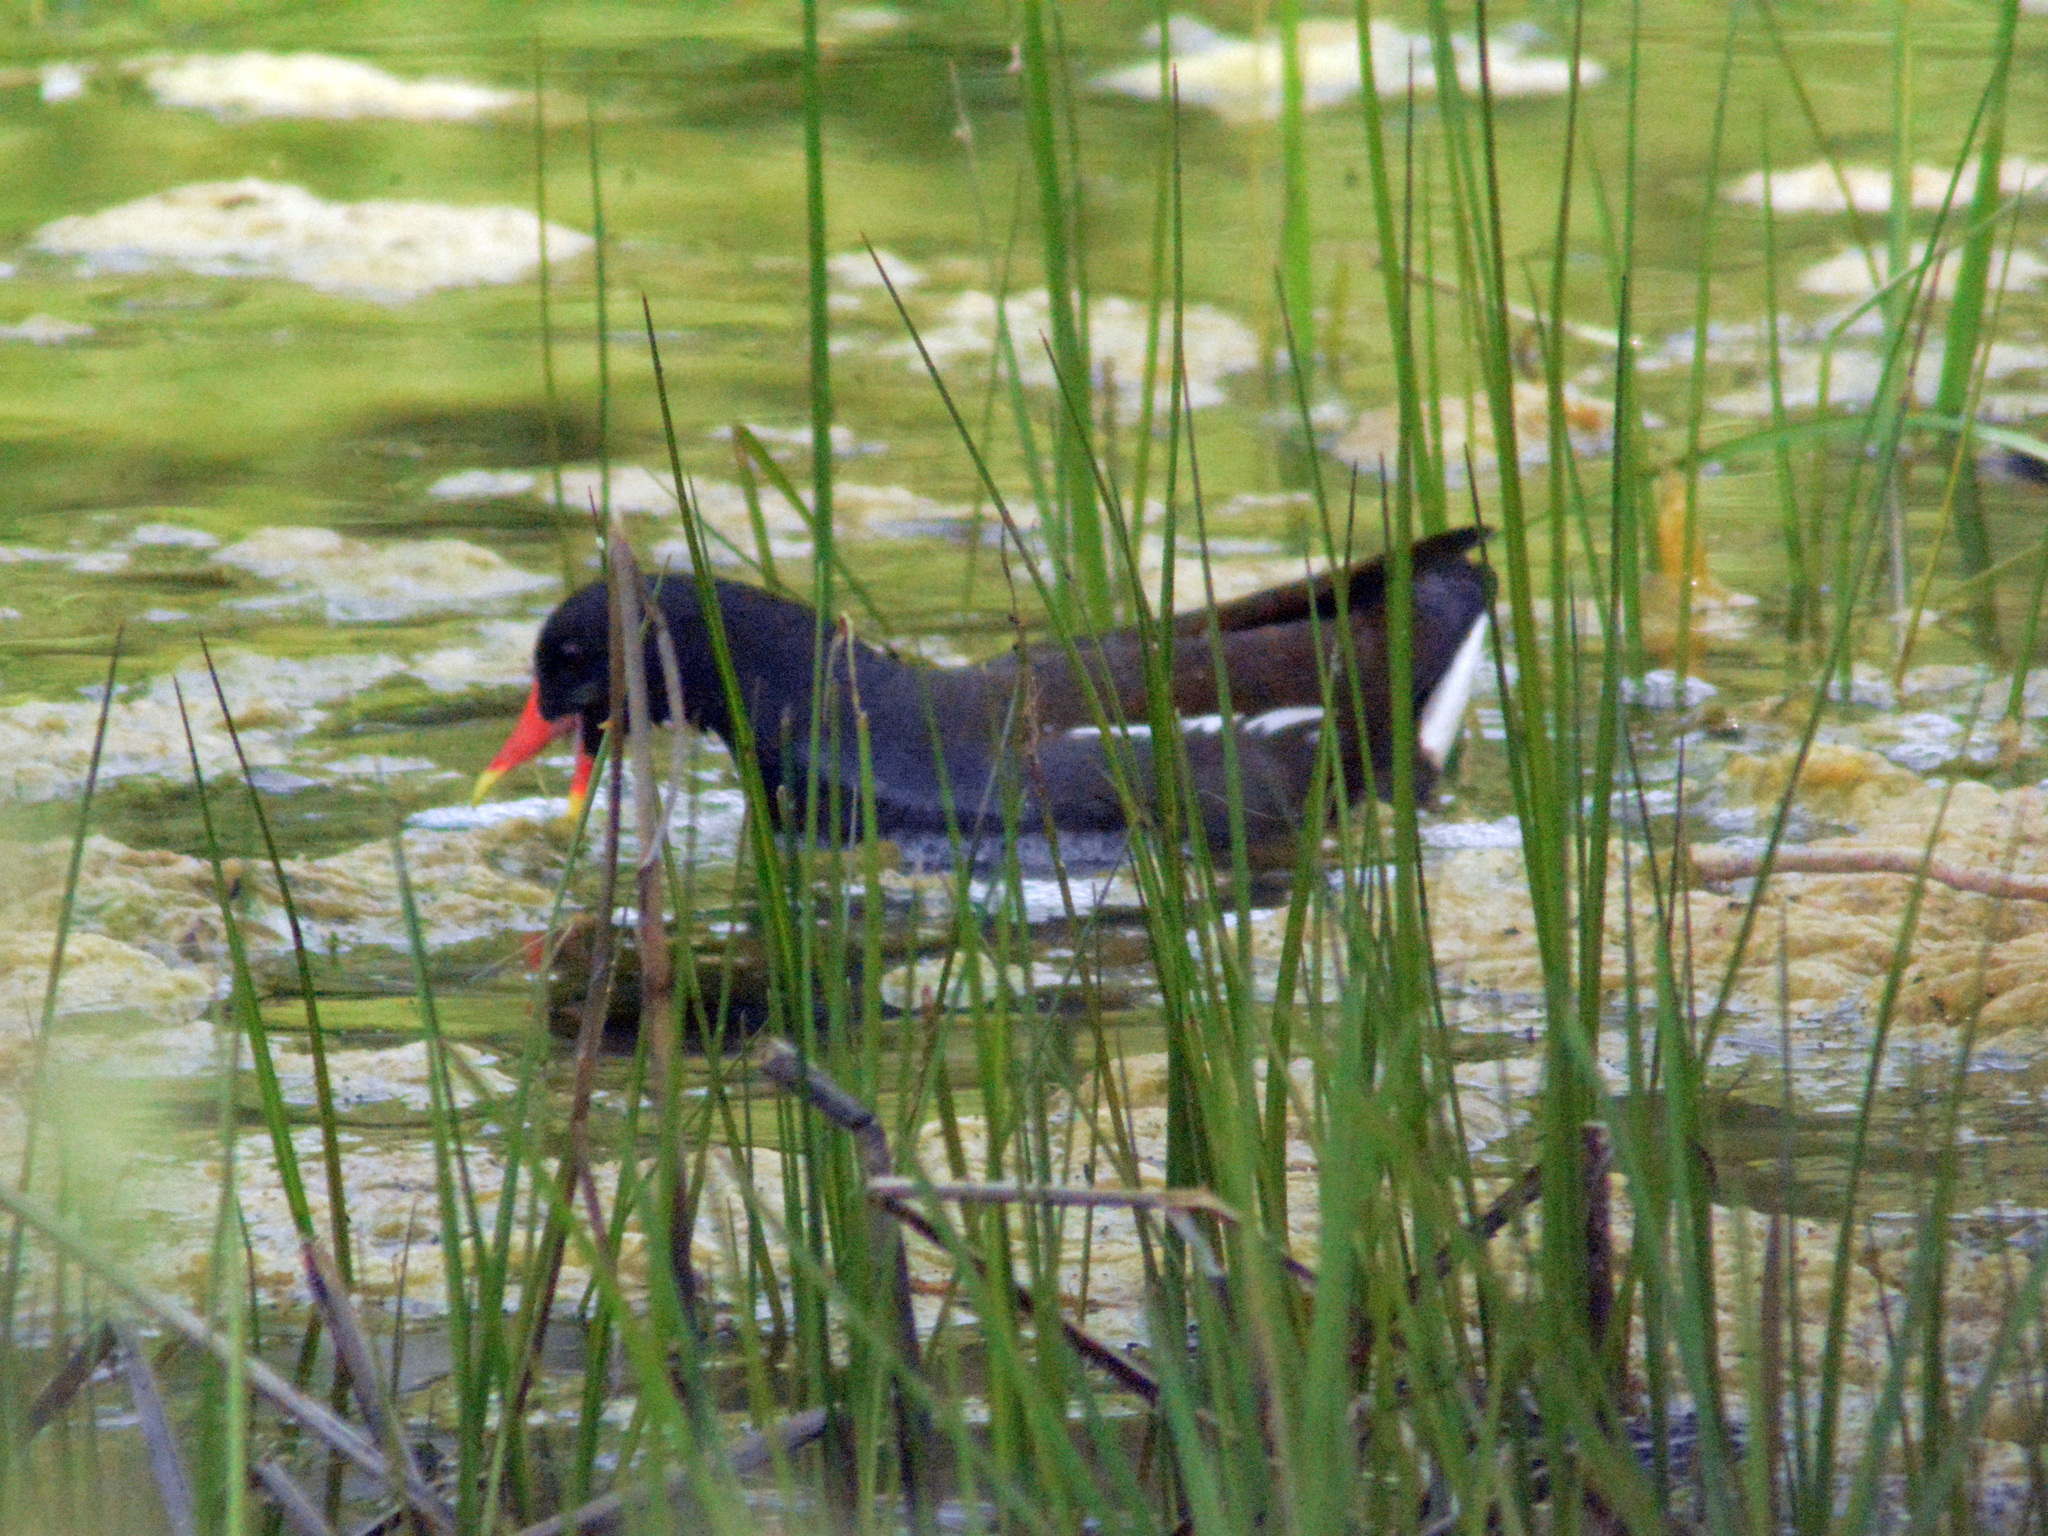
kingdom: Animalia
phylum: Chordata
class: Aves
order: Gruiformes
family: Rallidae
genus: Gallinula
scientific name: Gallinula chloropus
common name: Common moorhen
